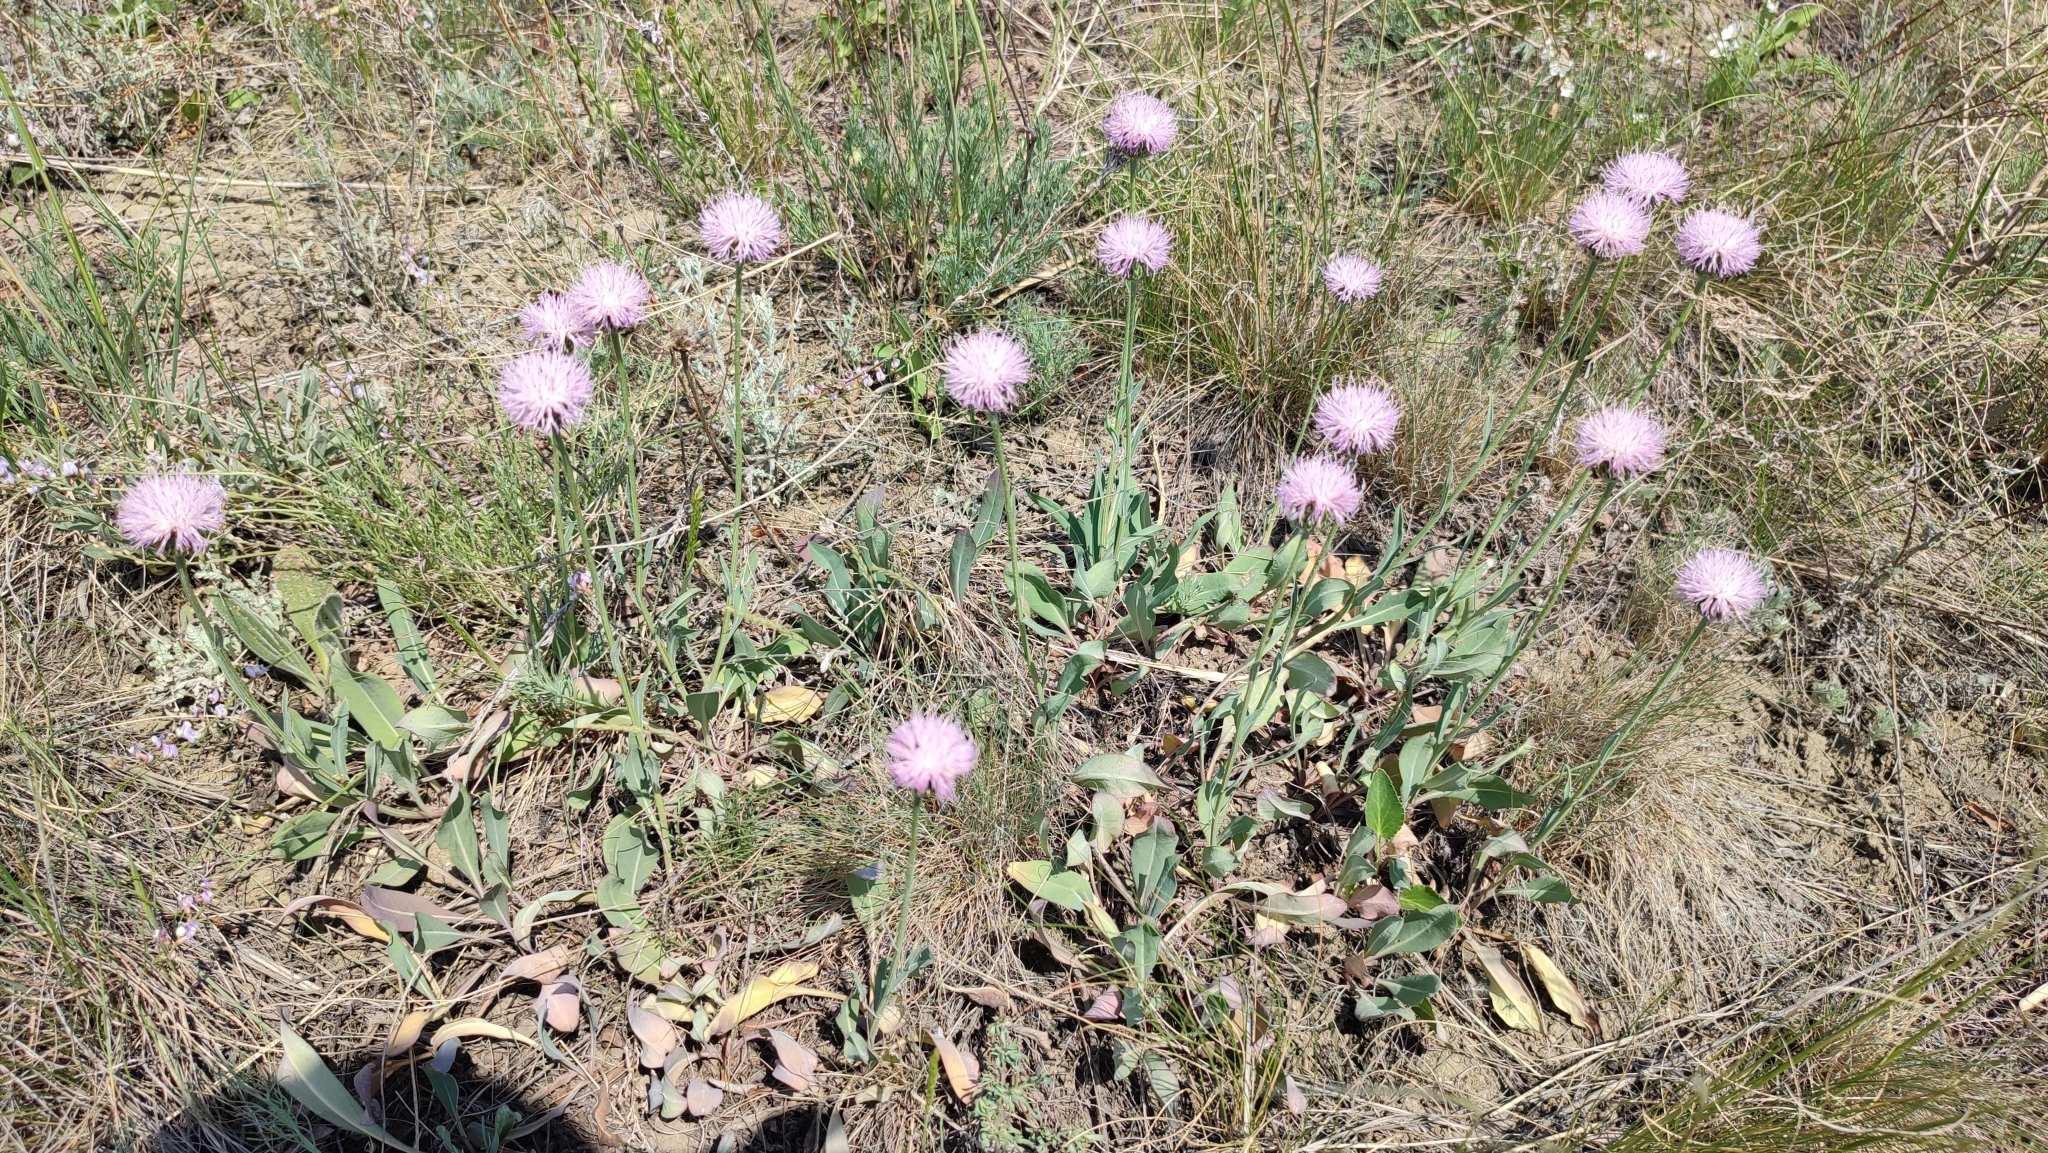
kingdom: Plantae
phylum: Tracheophyta
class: Magnoliopsida
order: Asterales
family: Asteraceae
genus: Klasea
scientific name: Klasea cardunculus
